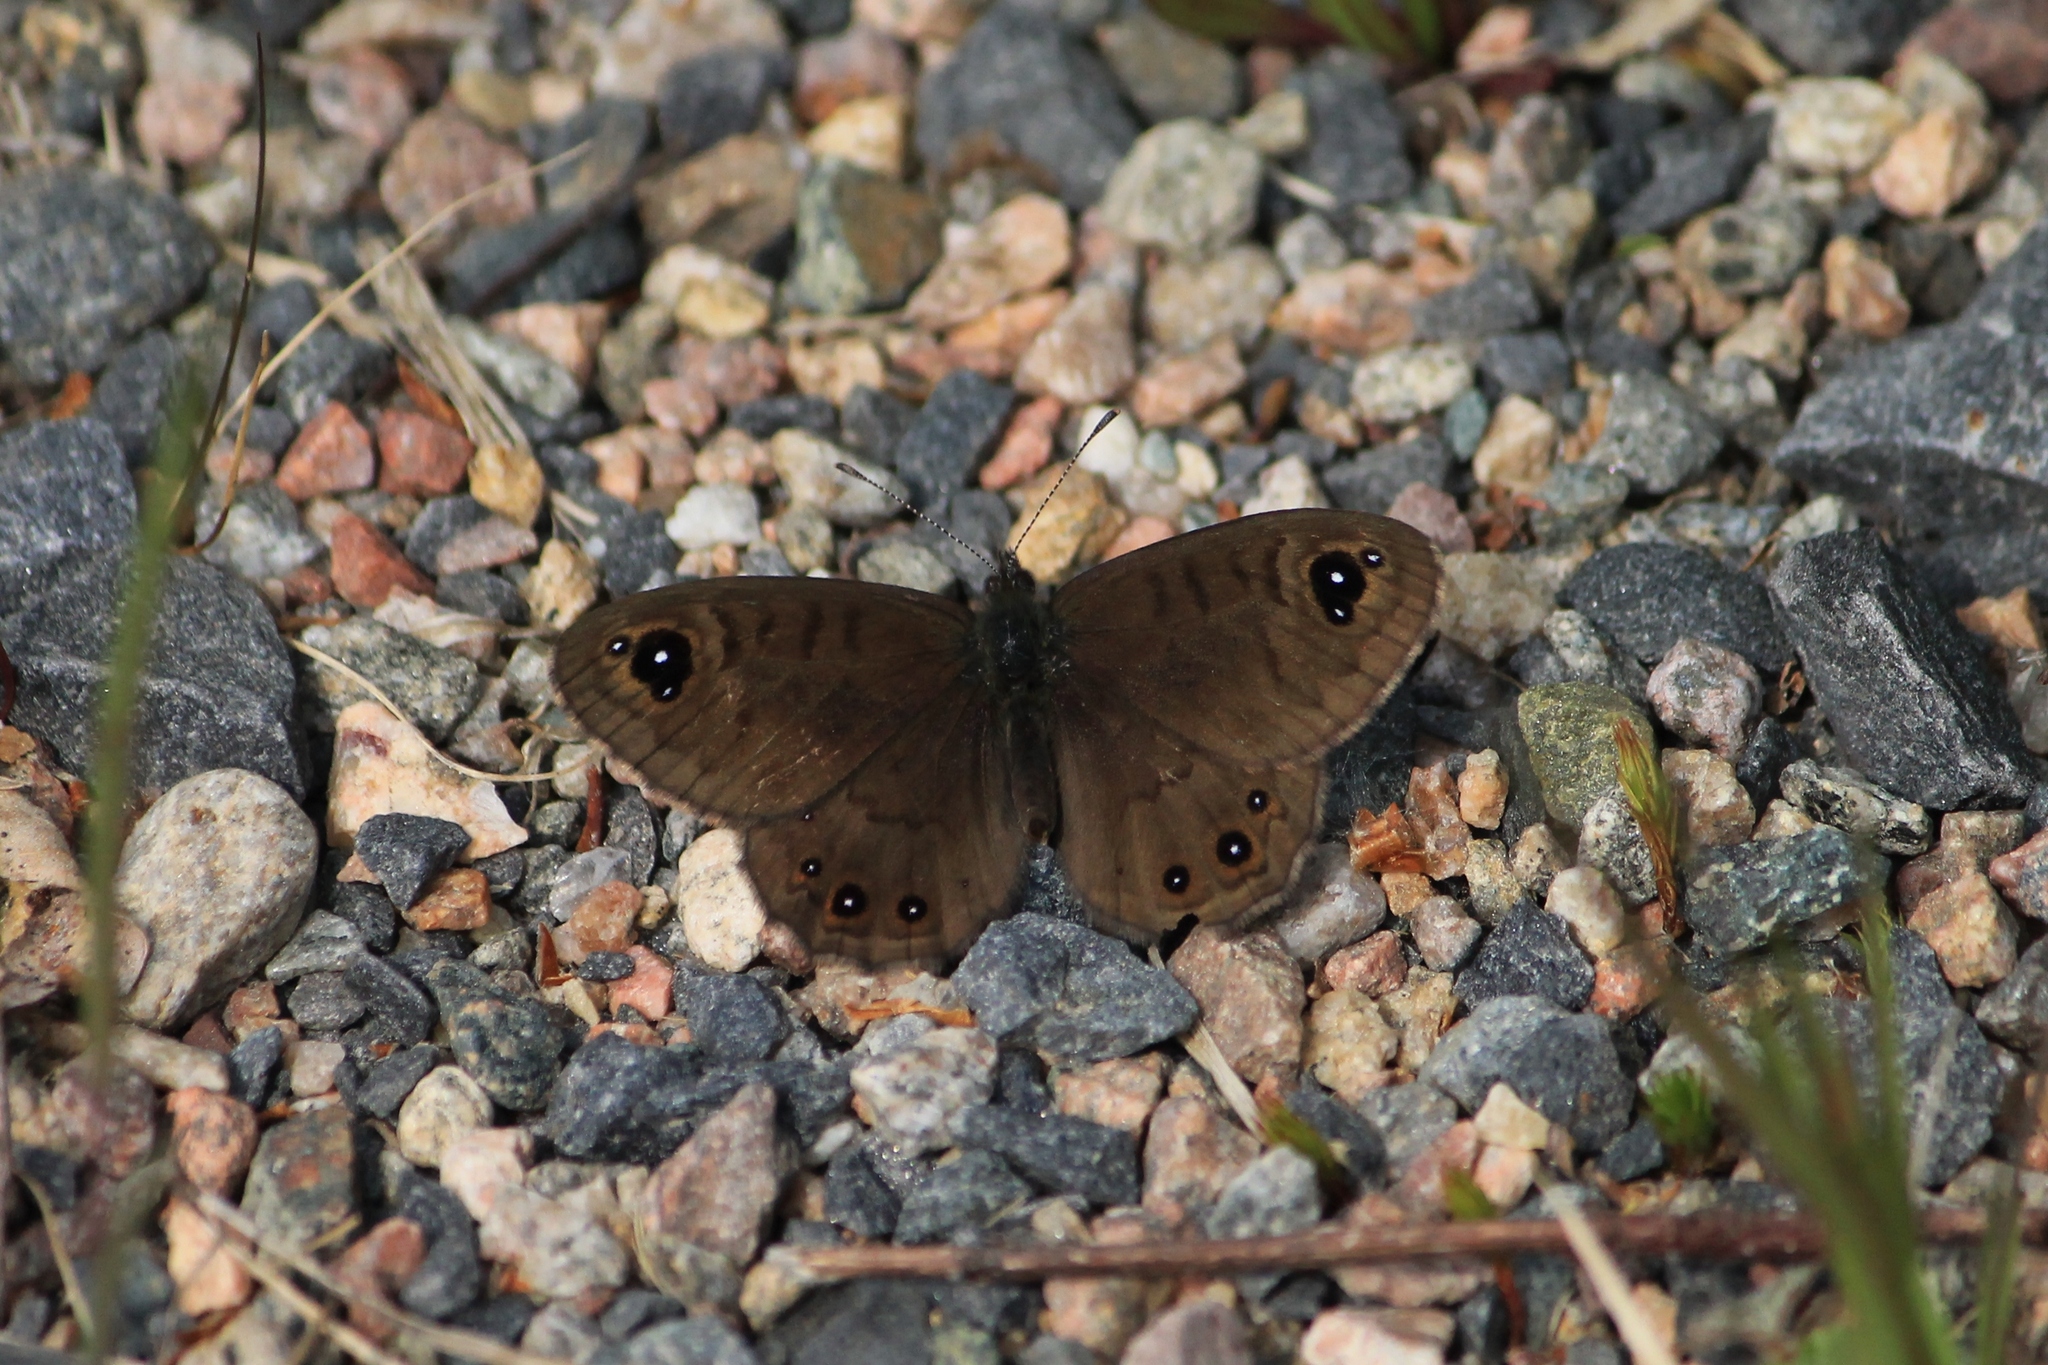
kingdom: Animalia
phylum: Arthropoda
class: Insecta
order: Lepidoptera
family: Nymphalidae
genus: Pararge
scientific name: Pararge petropolitana
